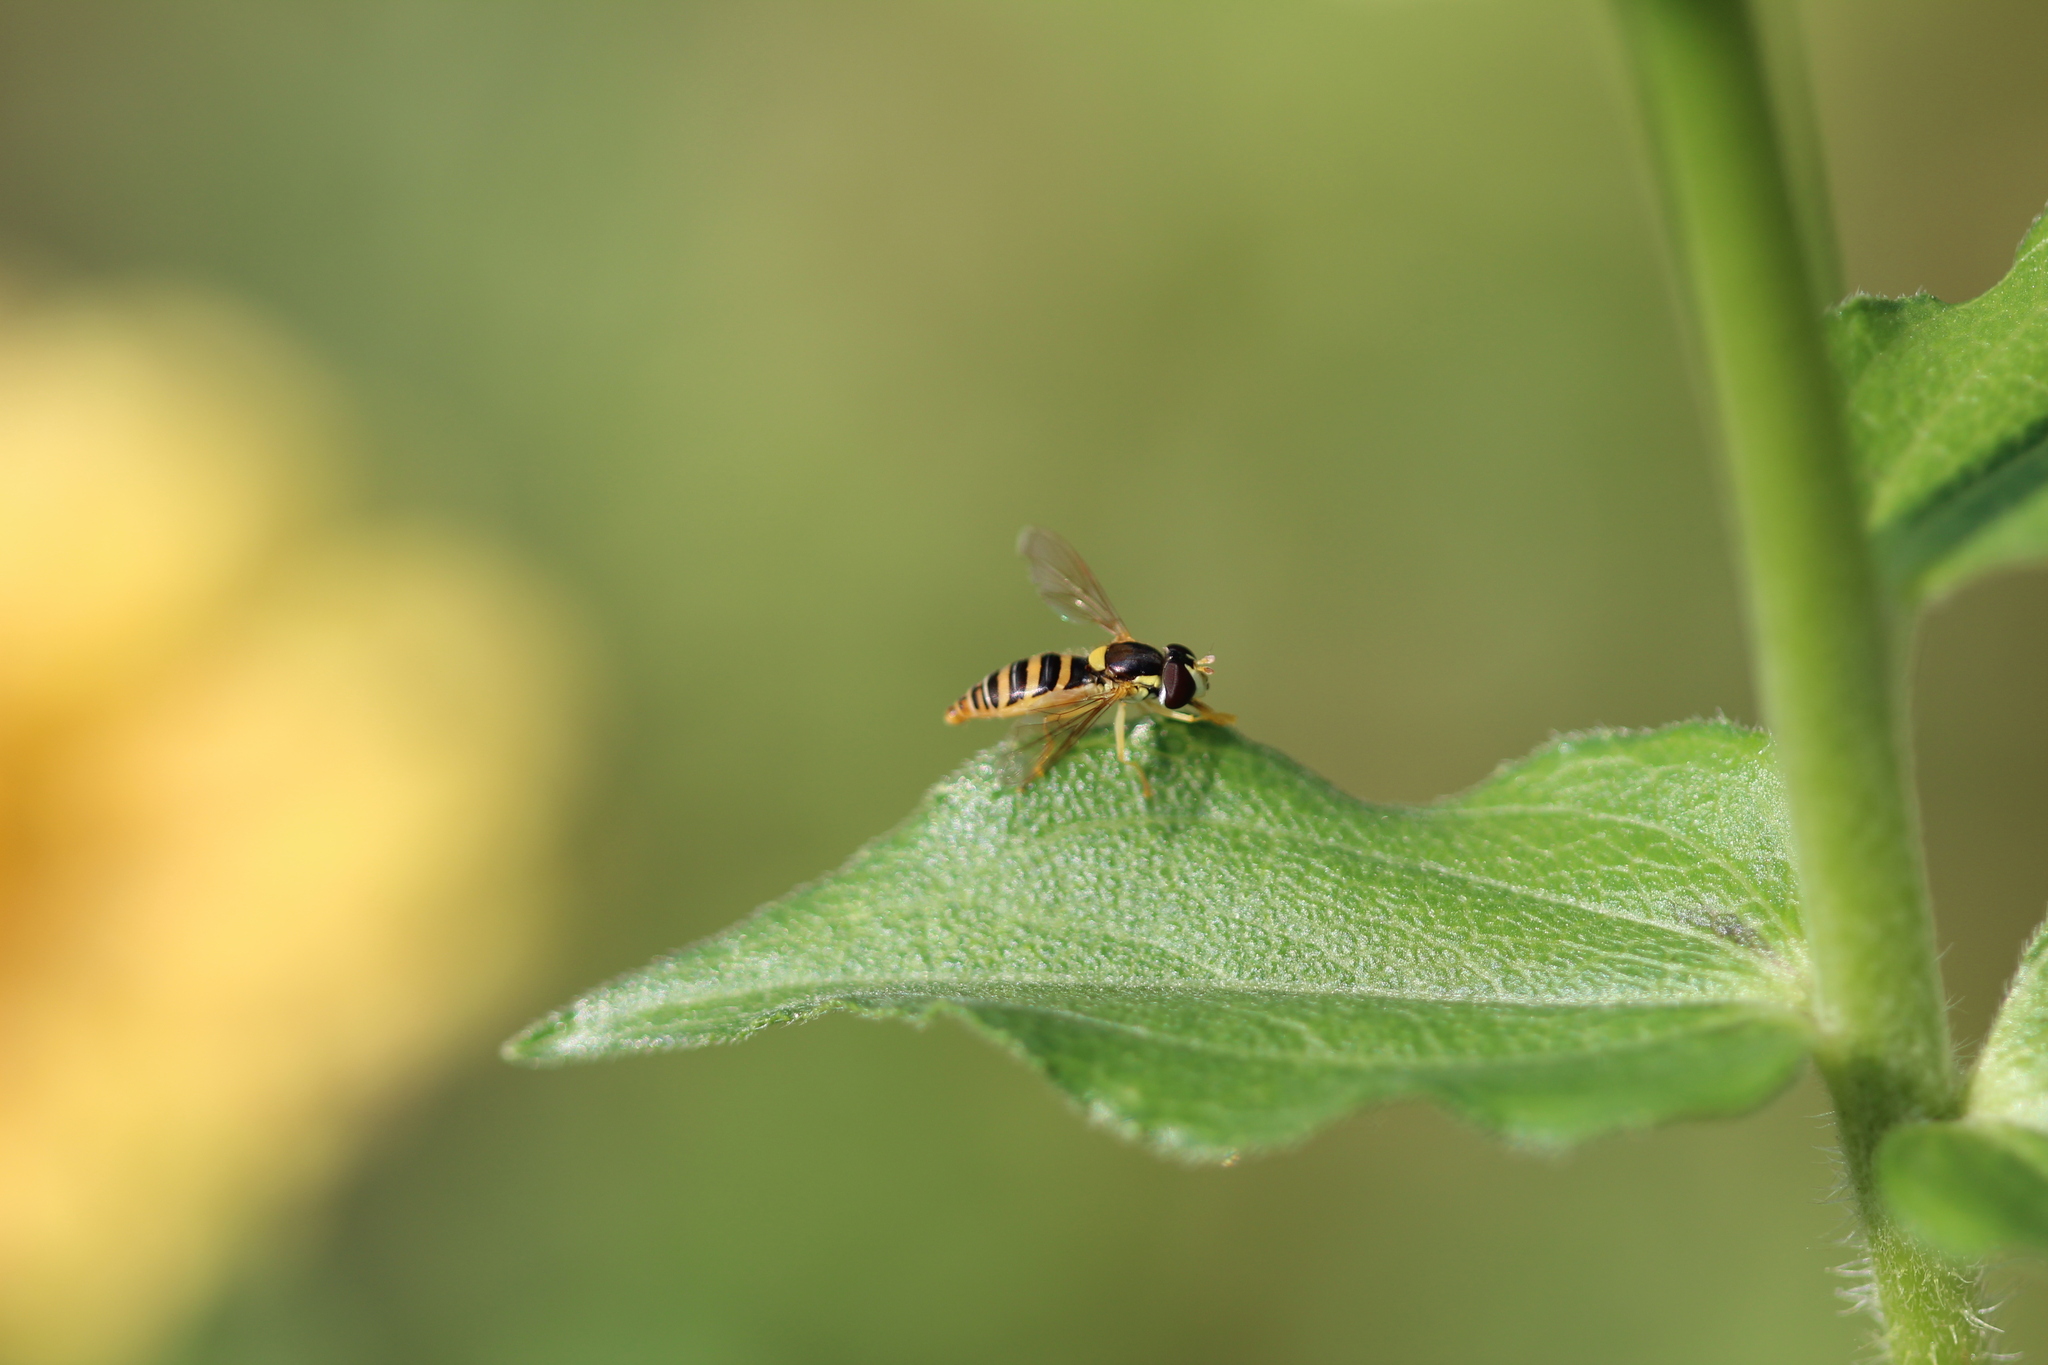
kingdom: Animalia
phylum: Arthropoda
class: Insecta
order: Diptera
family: Syrphidae
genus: Sphaerophoria
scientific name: Sphaerophoria contigua
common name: Tufted globetail
